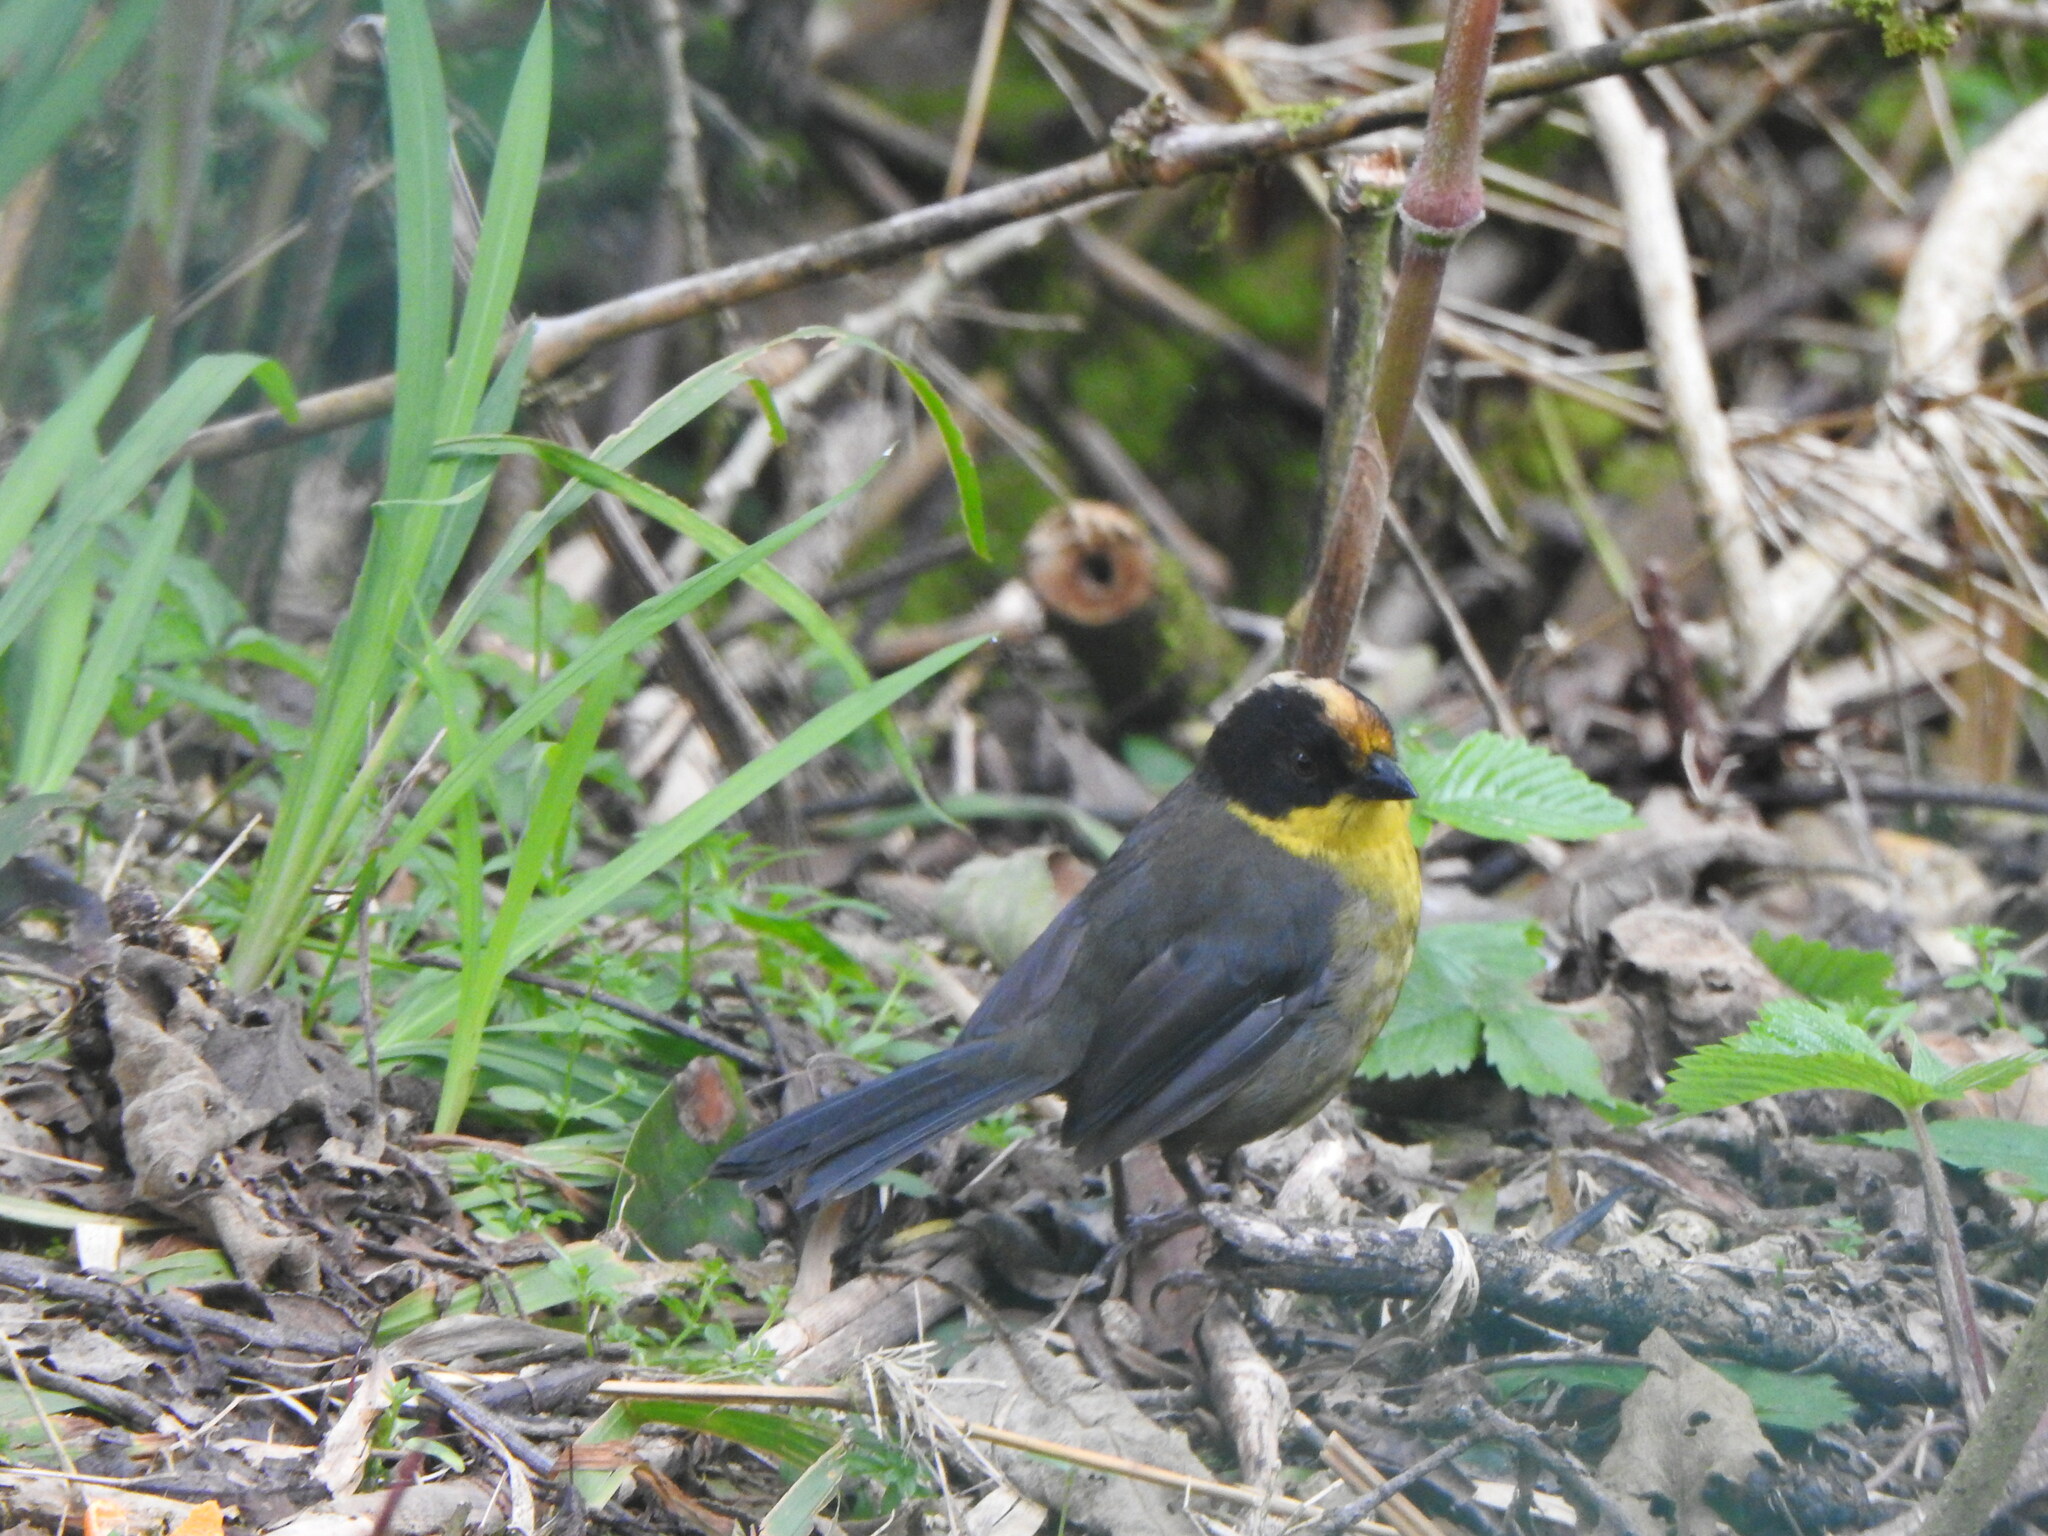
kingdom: Animalia
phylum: Chordata
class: Aves
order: Passeriformes
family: Passerellidae
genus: Atlapetes
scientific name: Atlapetes pallidinucha
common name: Pale-naped brushfinch
